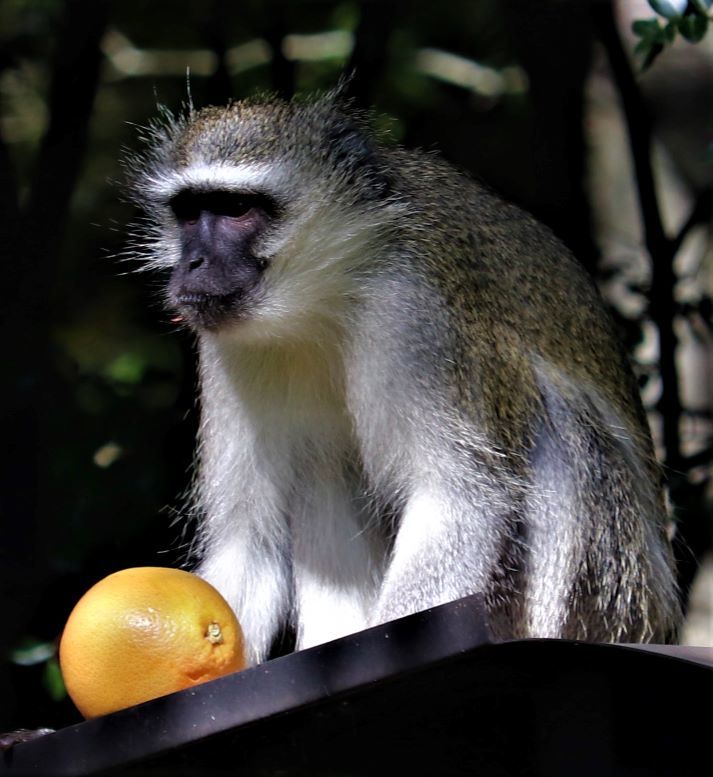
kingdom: Animalia
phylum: Chordata
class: Mammalia
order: Primates
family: Cercopithecidae
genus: Chlorocebus
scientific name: Chlorocebus pygerythrus
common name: Vervet monkey
